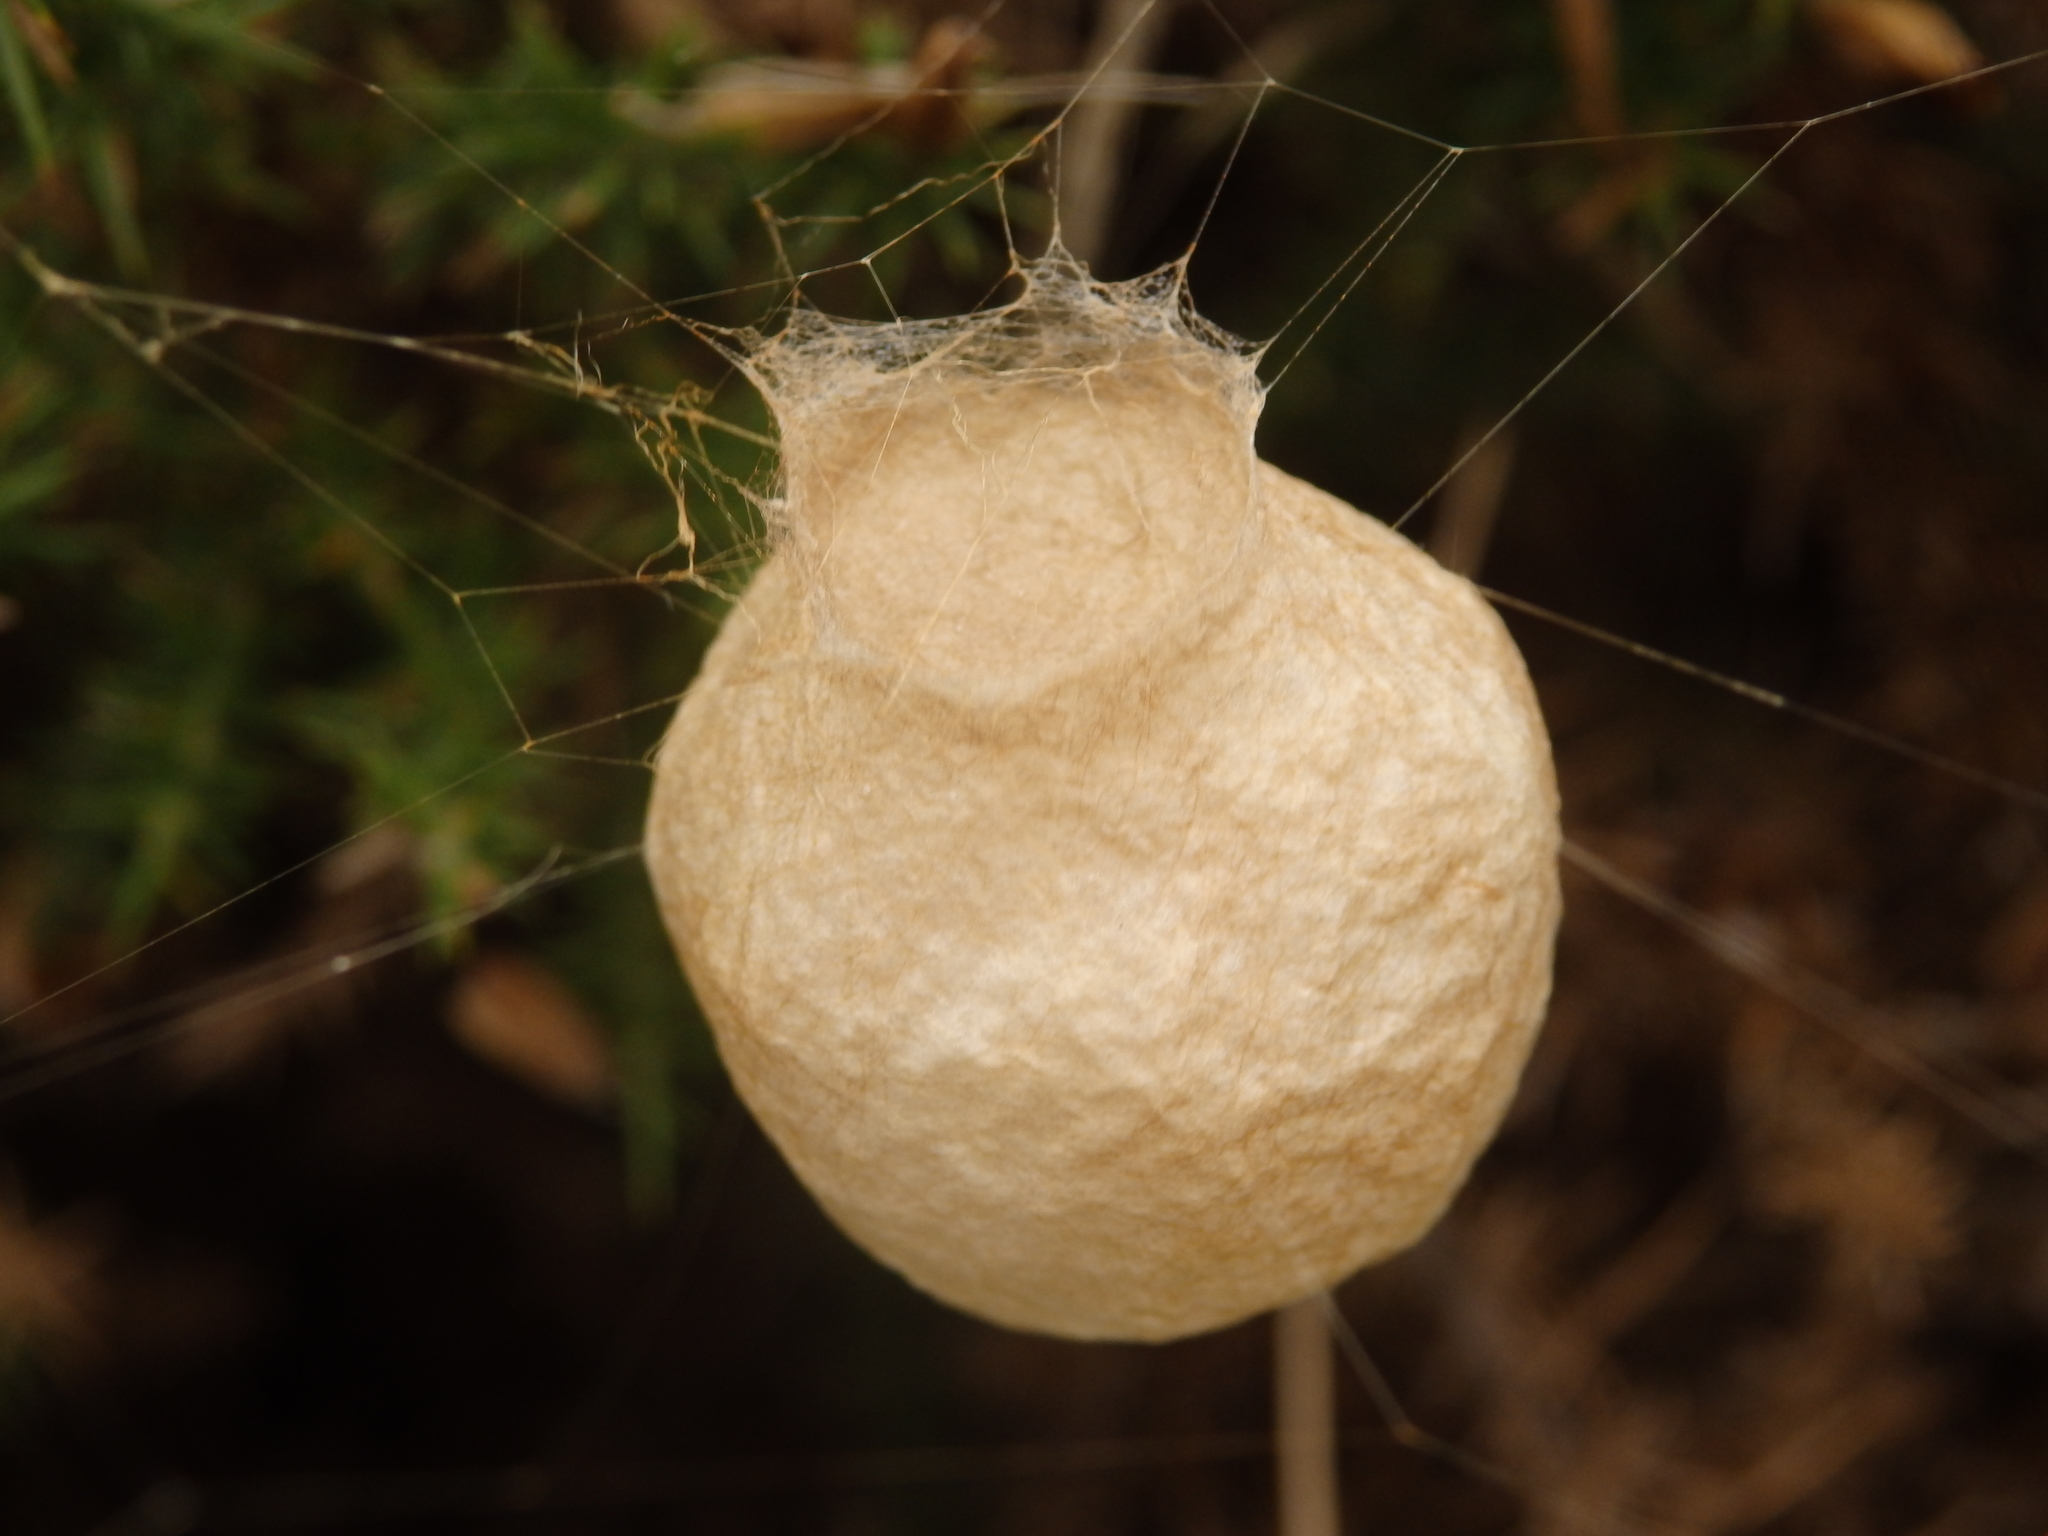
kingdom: Animalia
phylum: Arthropoda
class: Arachnida
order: Araneae
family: Araneidae
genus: Neoscona
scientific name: Neoscona adianta
